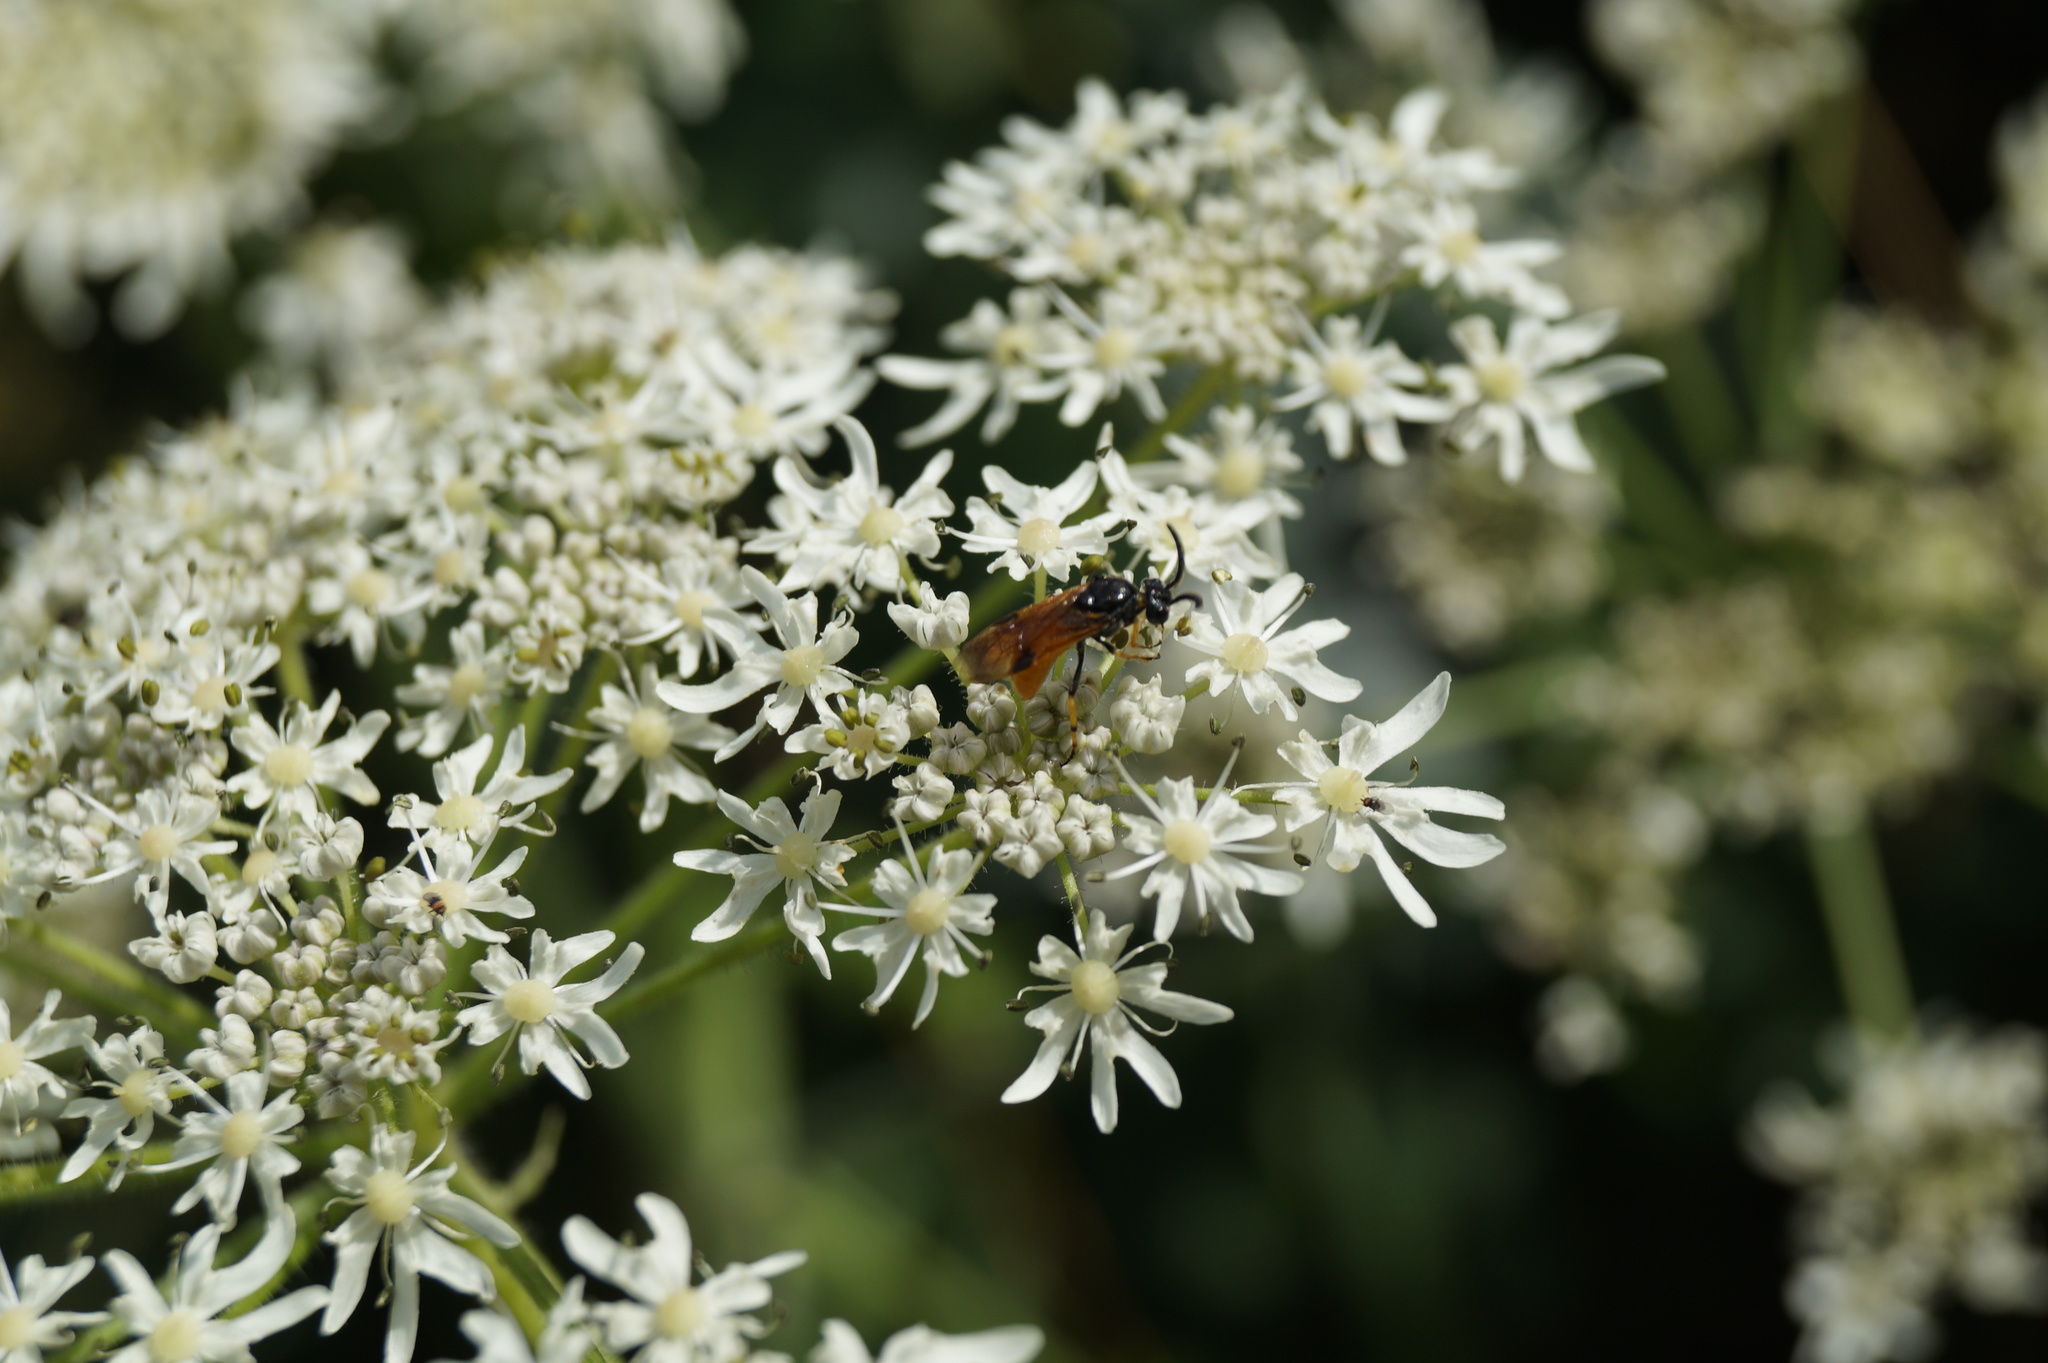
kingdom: Animalia
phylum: Arthropoda
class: Insecta
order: Hymenoptera
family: Argidae
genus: Arge
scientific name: Arge melanochra
